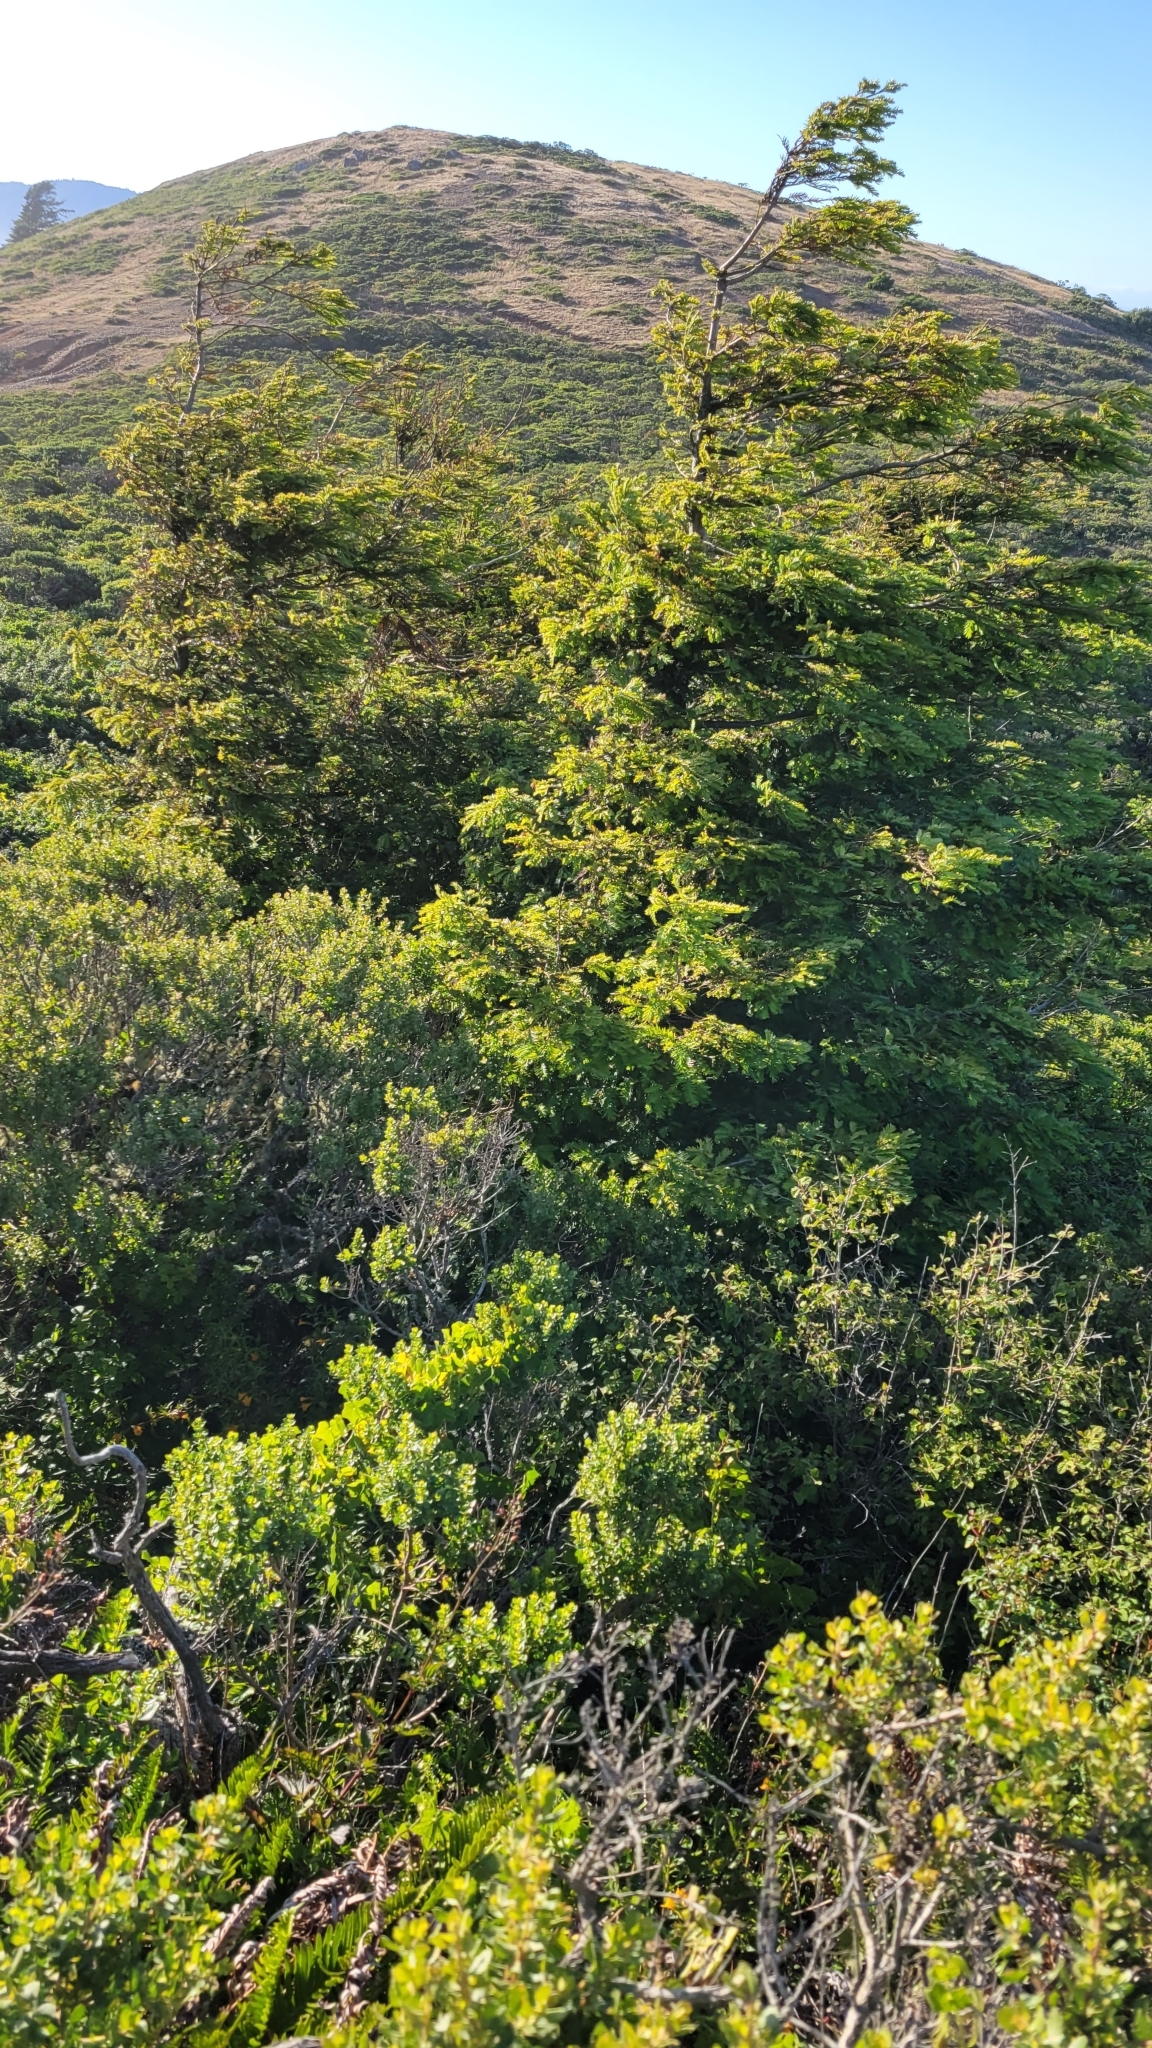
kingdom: Plantae
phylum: Tracheophyta
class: Pinopsida
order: Pinales
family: Cupressaceae
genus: Sequoia
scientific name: Sequoia sempervirens
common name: Coast redwood
